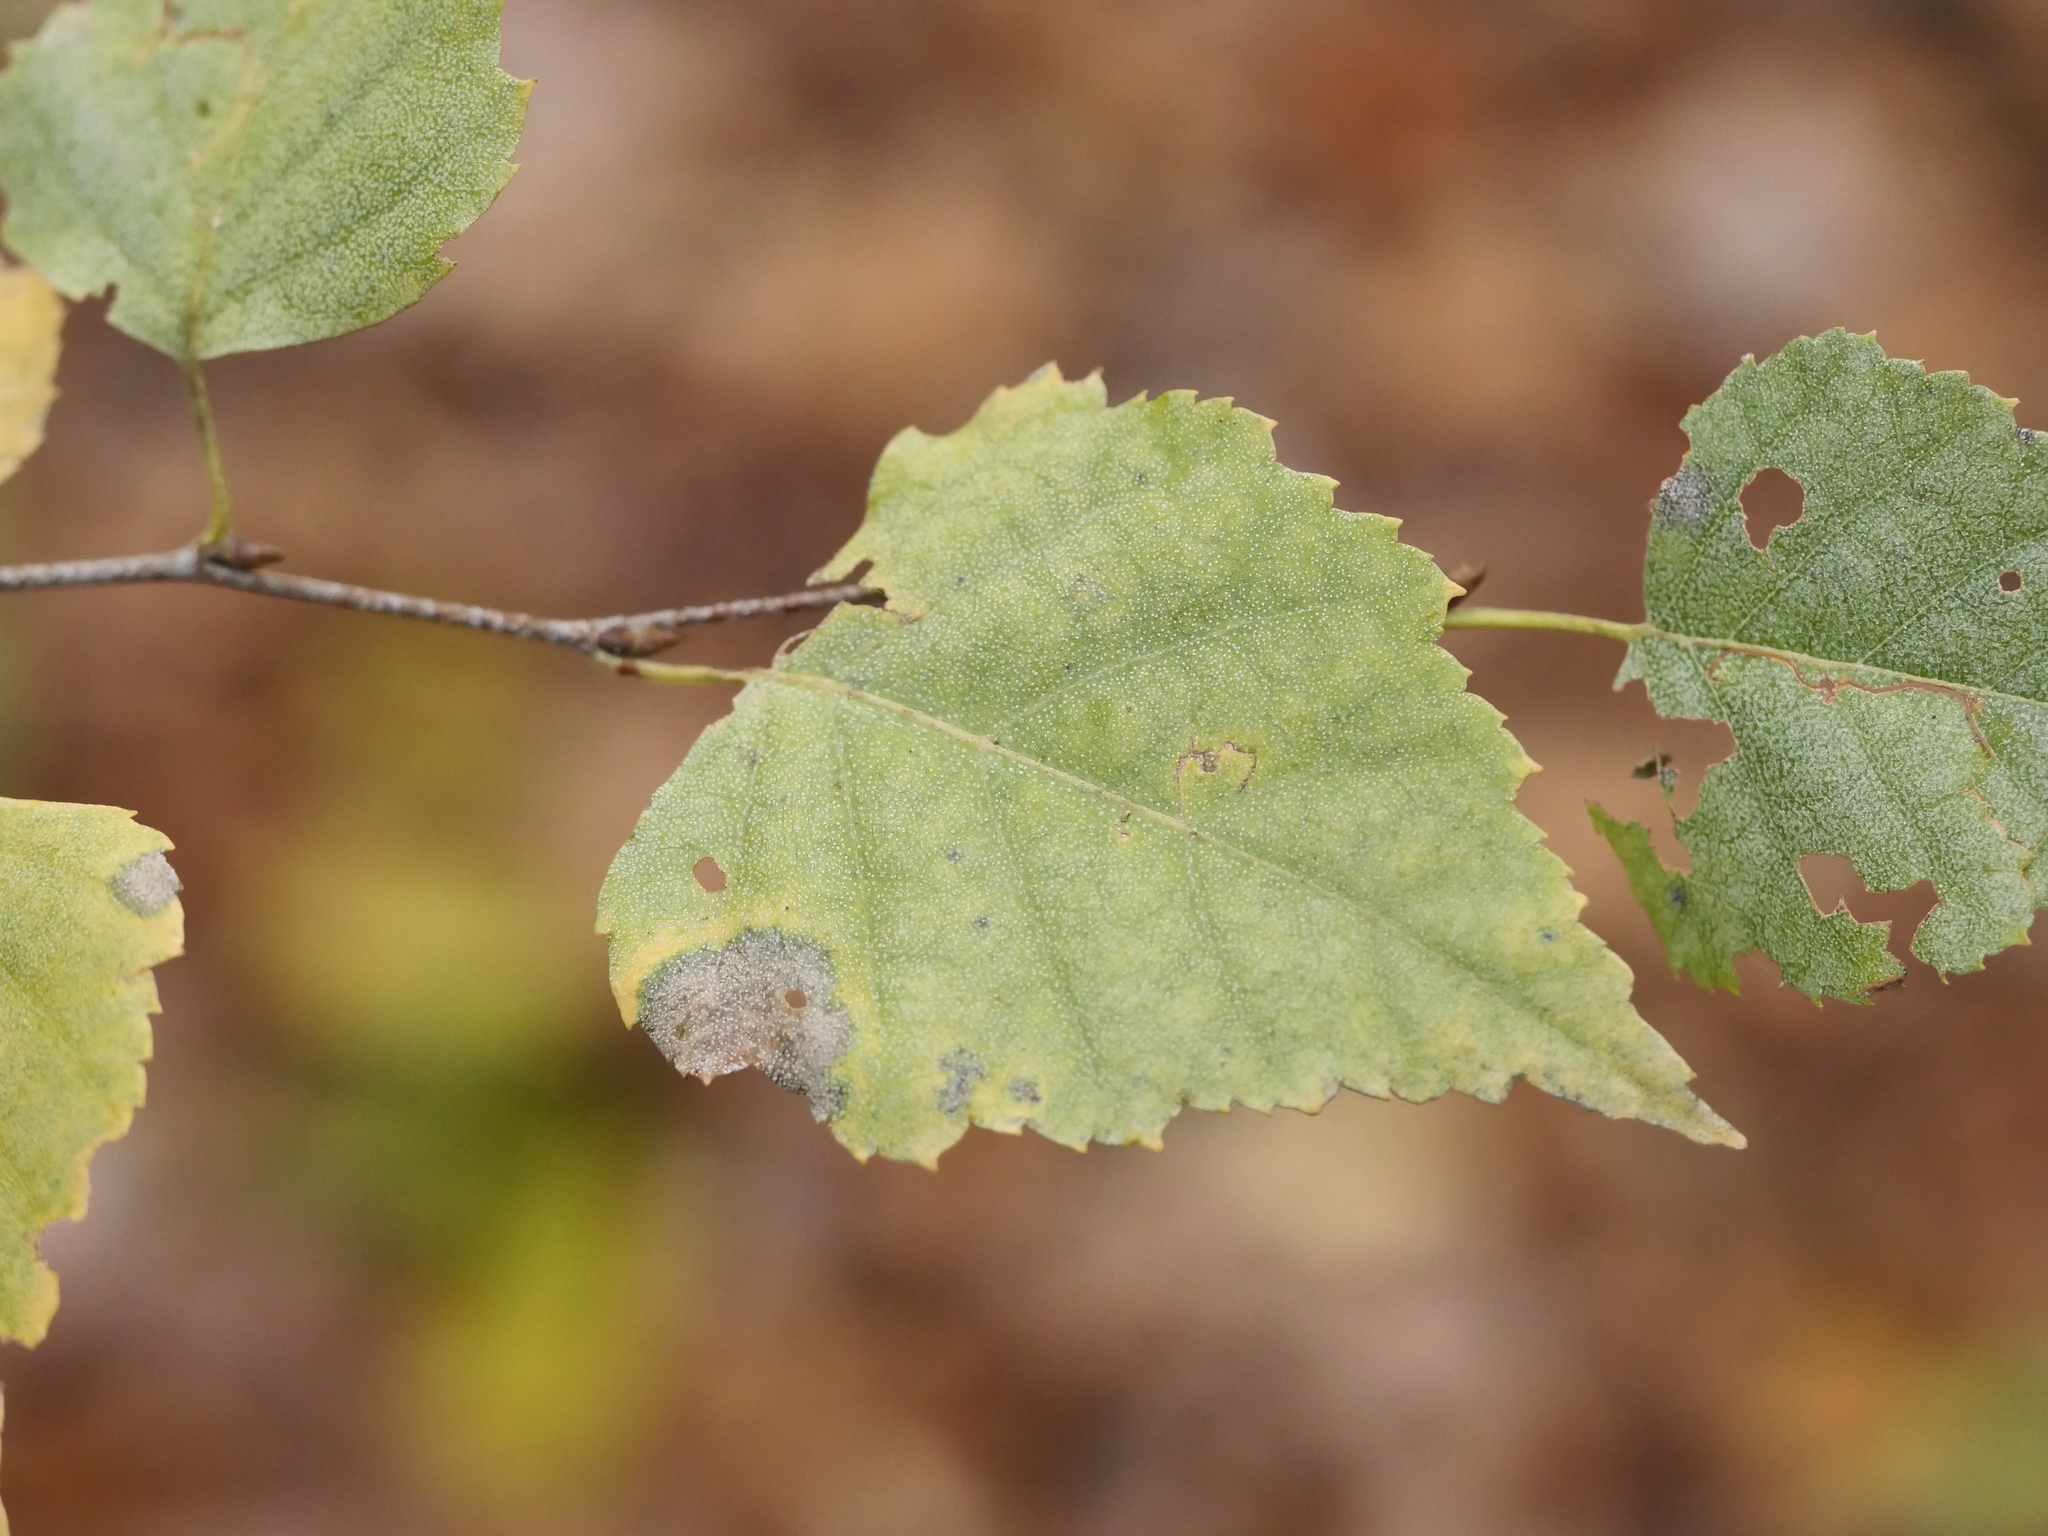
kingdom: Plantae
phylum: Tracheophyta
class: Magnoliopsida
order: Fagales
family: Betulaceae
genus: Betula
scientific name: Betula pendula
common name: Silver birch
